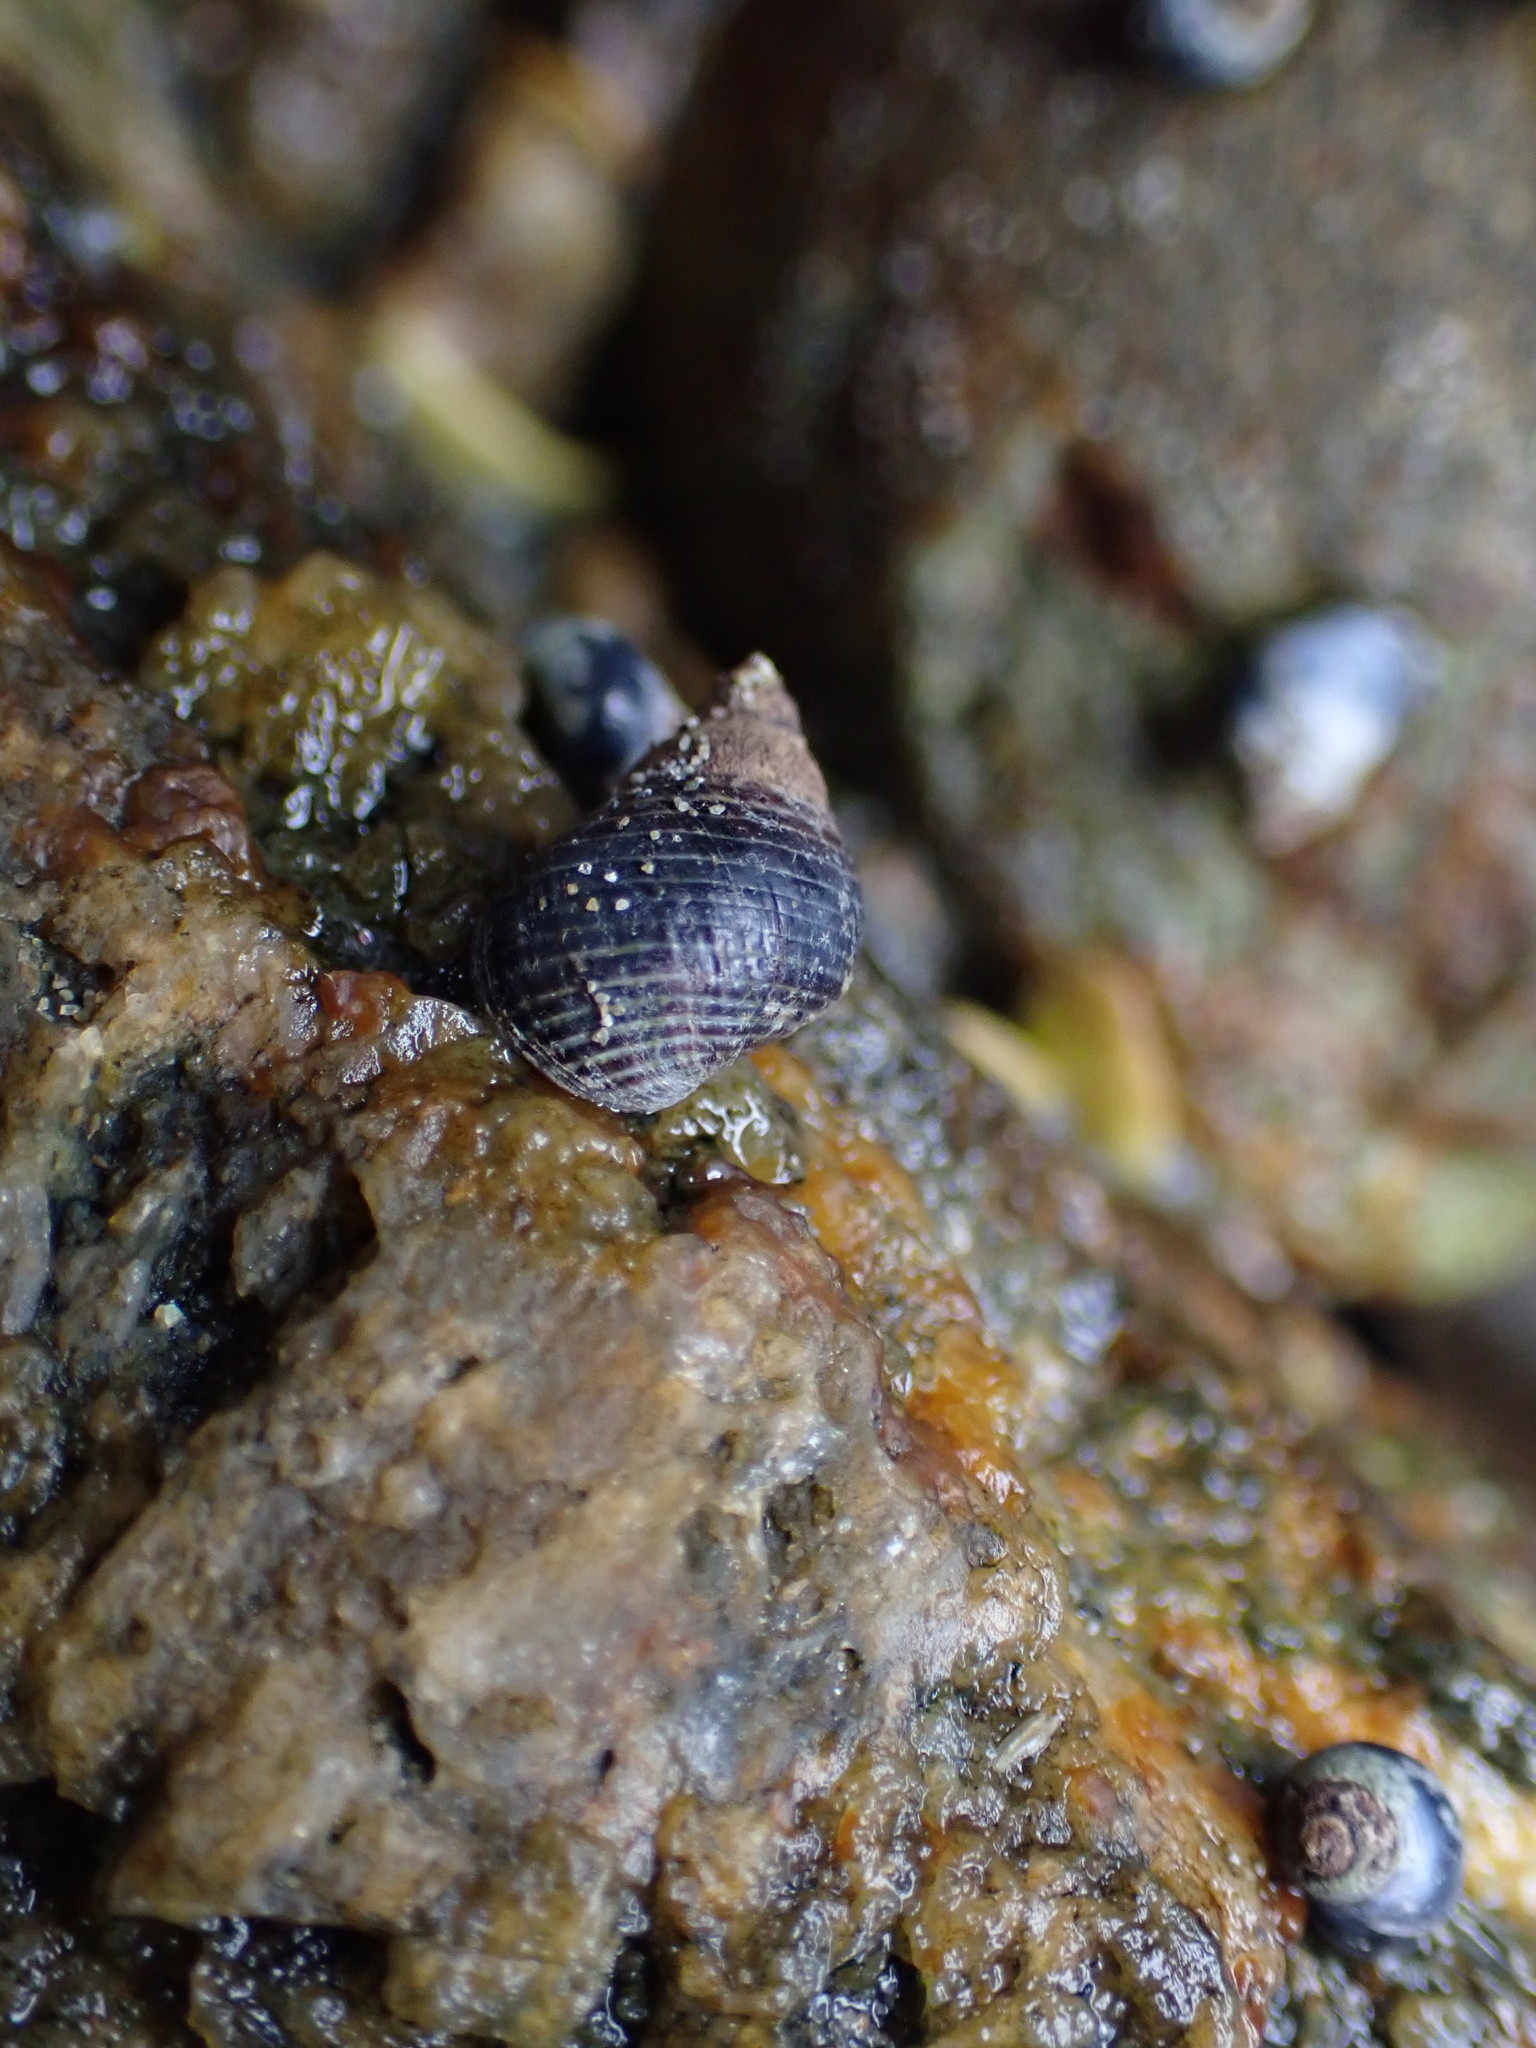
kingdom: Animalia
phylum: Mollusca
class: Gastropoda
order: Littorinimorpha
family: Littorinidae
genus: Austrolittorina
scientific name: Austrolittorina cincta
